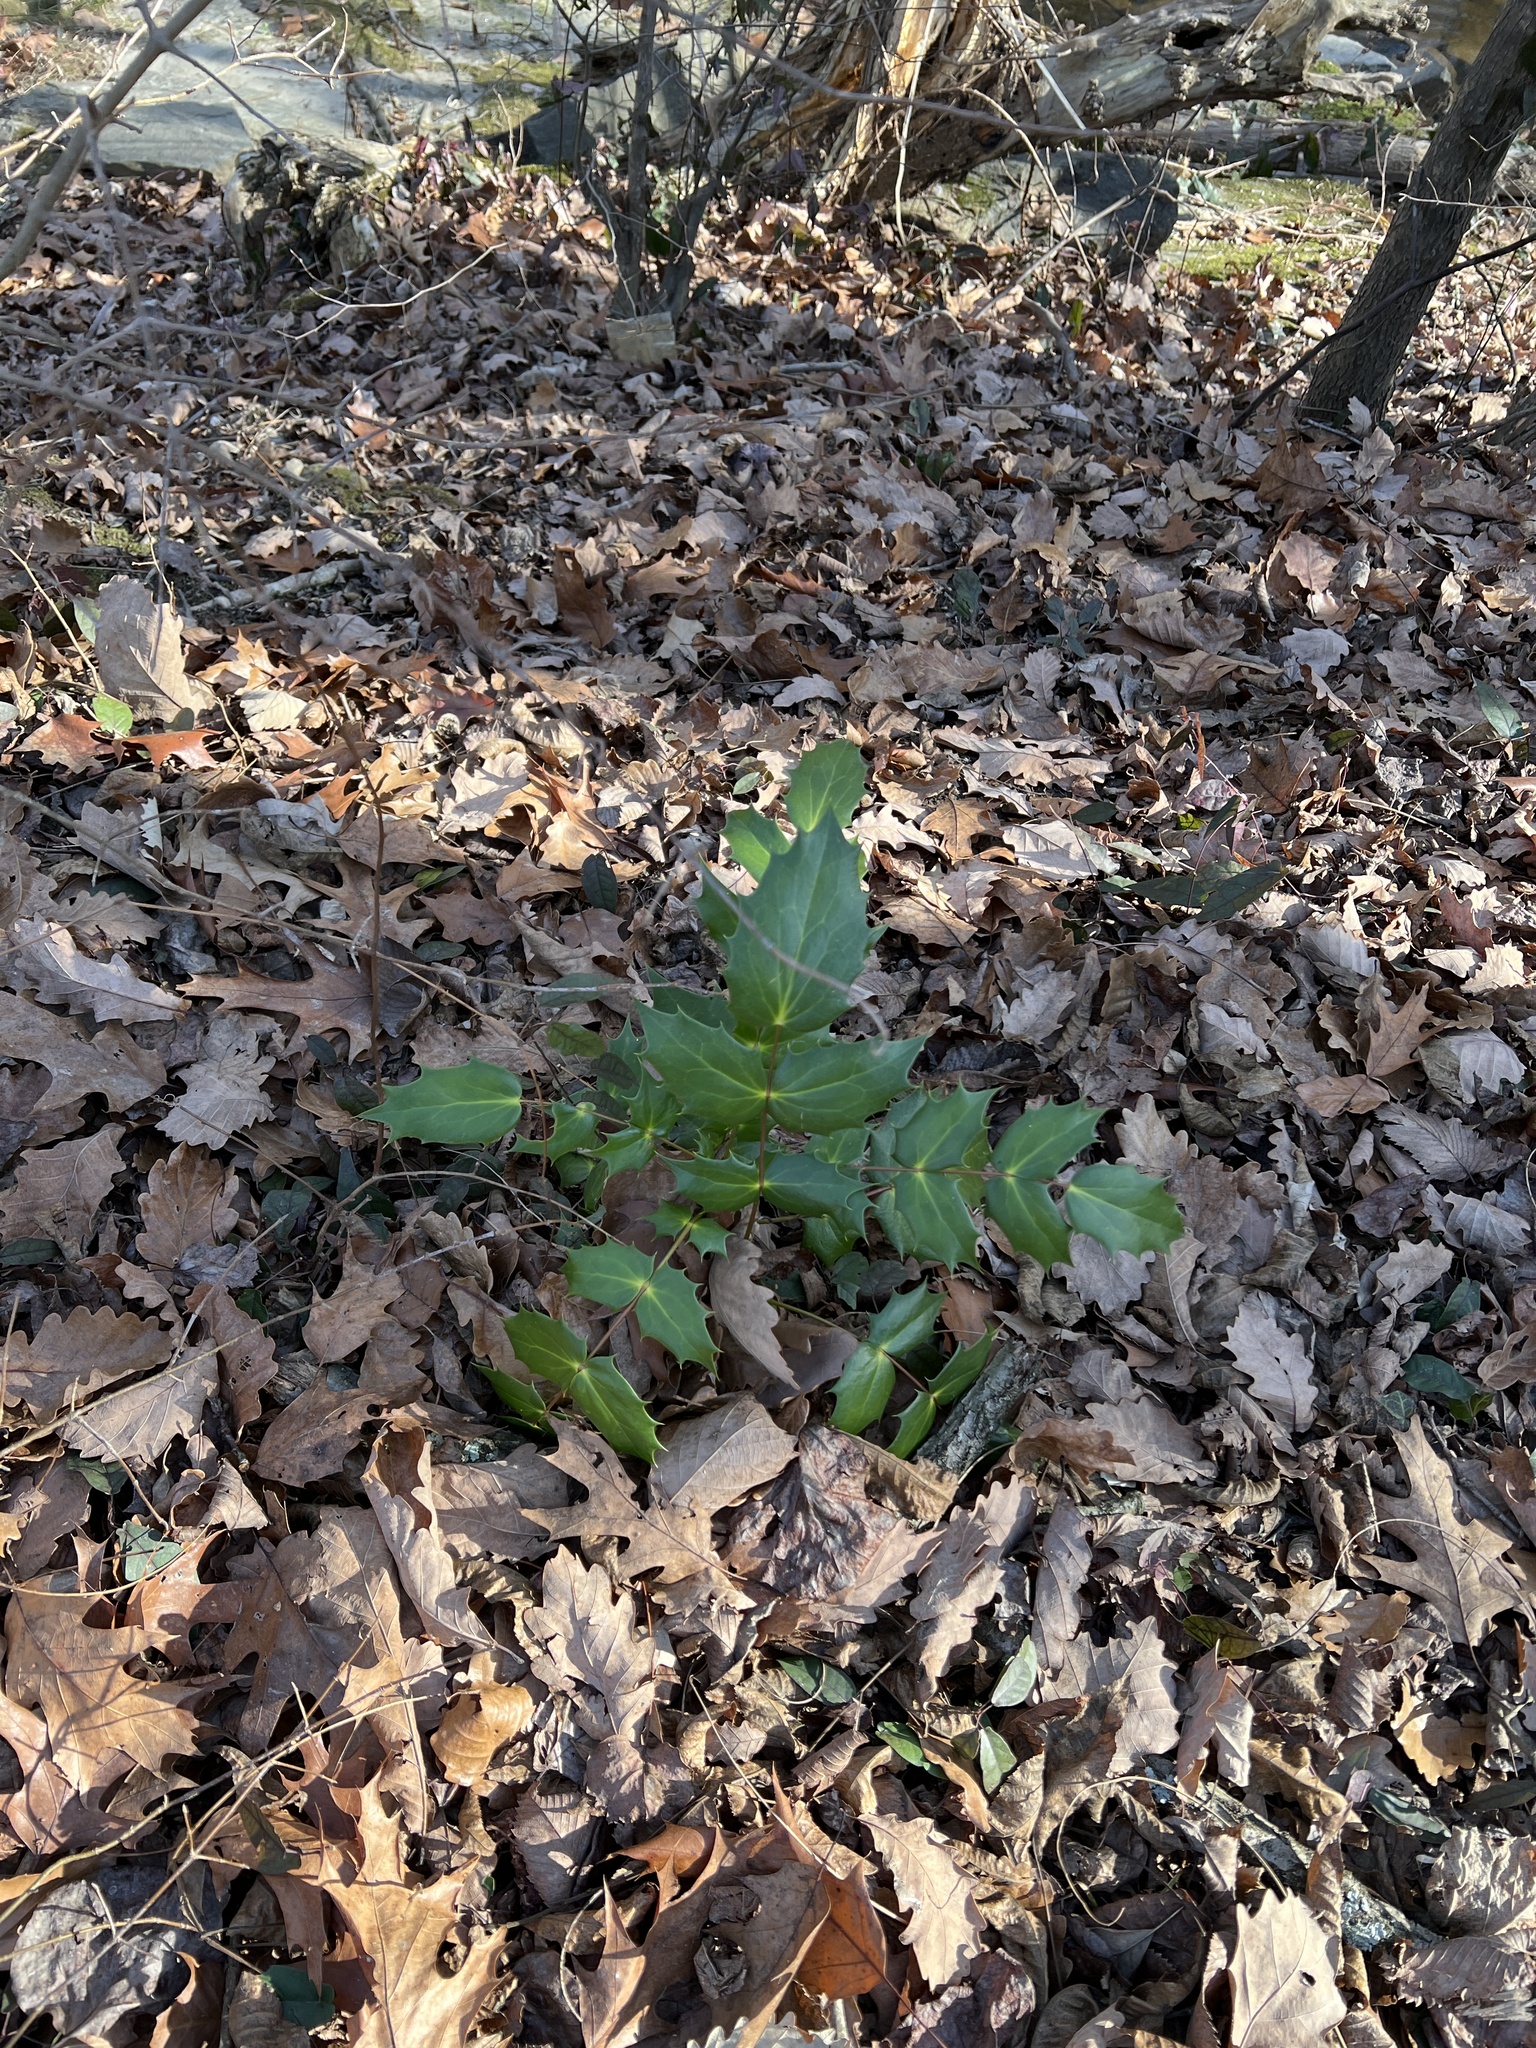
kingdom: Plantae
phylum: Tracheophyta
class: Magnoliopsida
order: Ranunculales
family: Berberidaceae
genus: Mahonia
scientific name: Mahonia bealei
